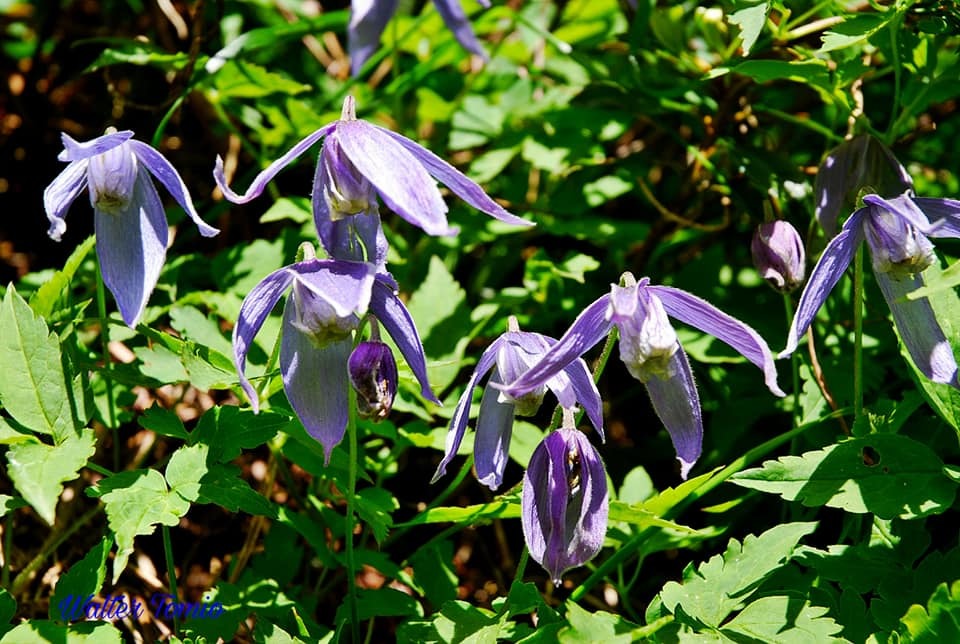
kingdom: Plantae
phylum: Tracheophyta
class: Magnoliopsida
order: Ranunculales
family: Ranunculaceae
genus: Clematis
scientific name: Clematis alpina
